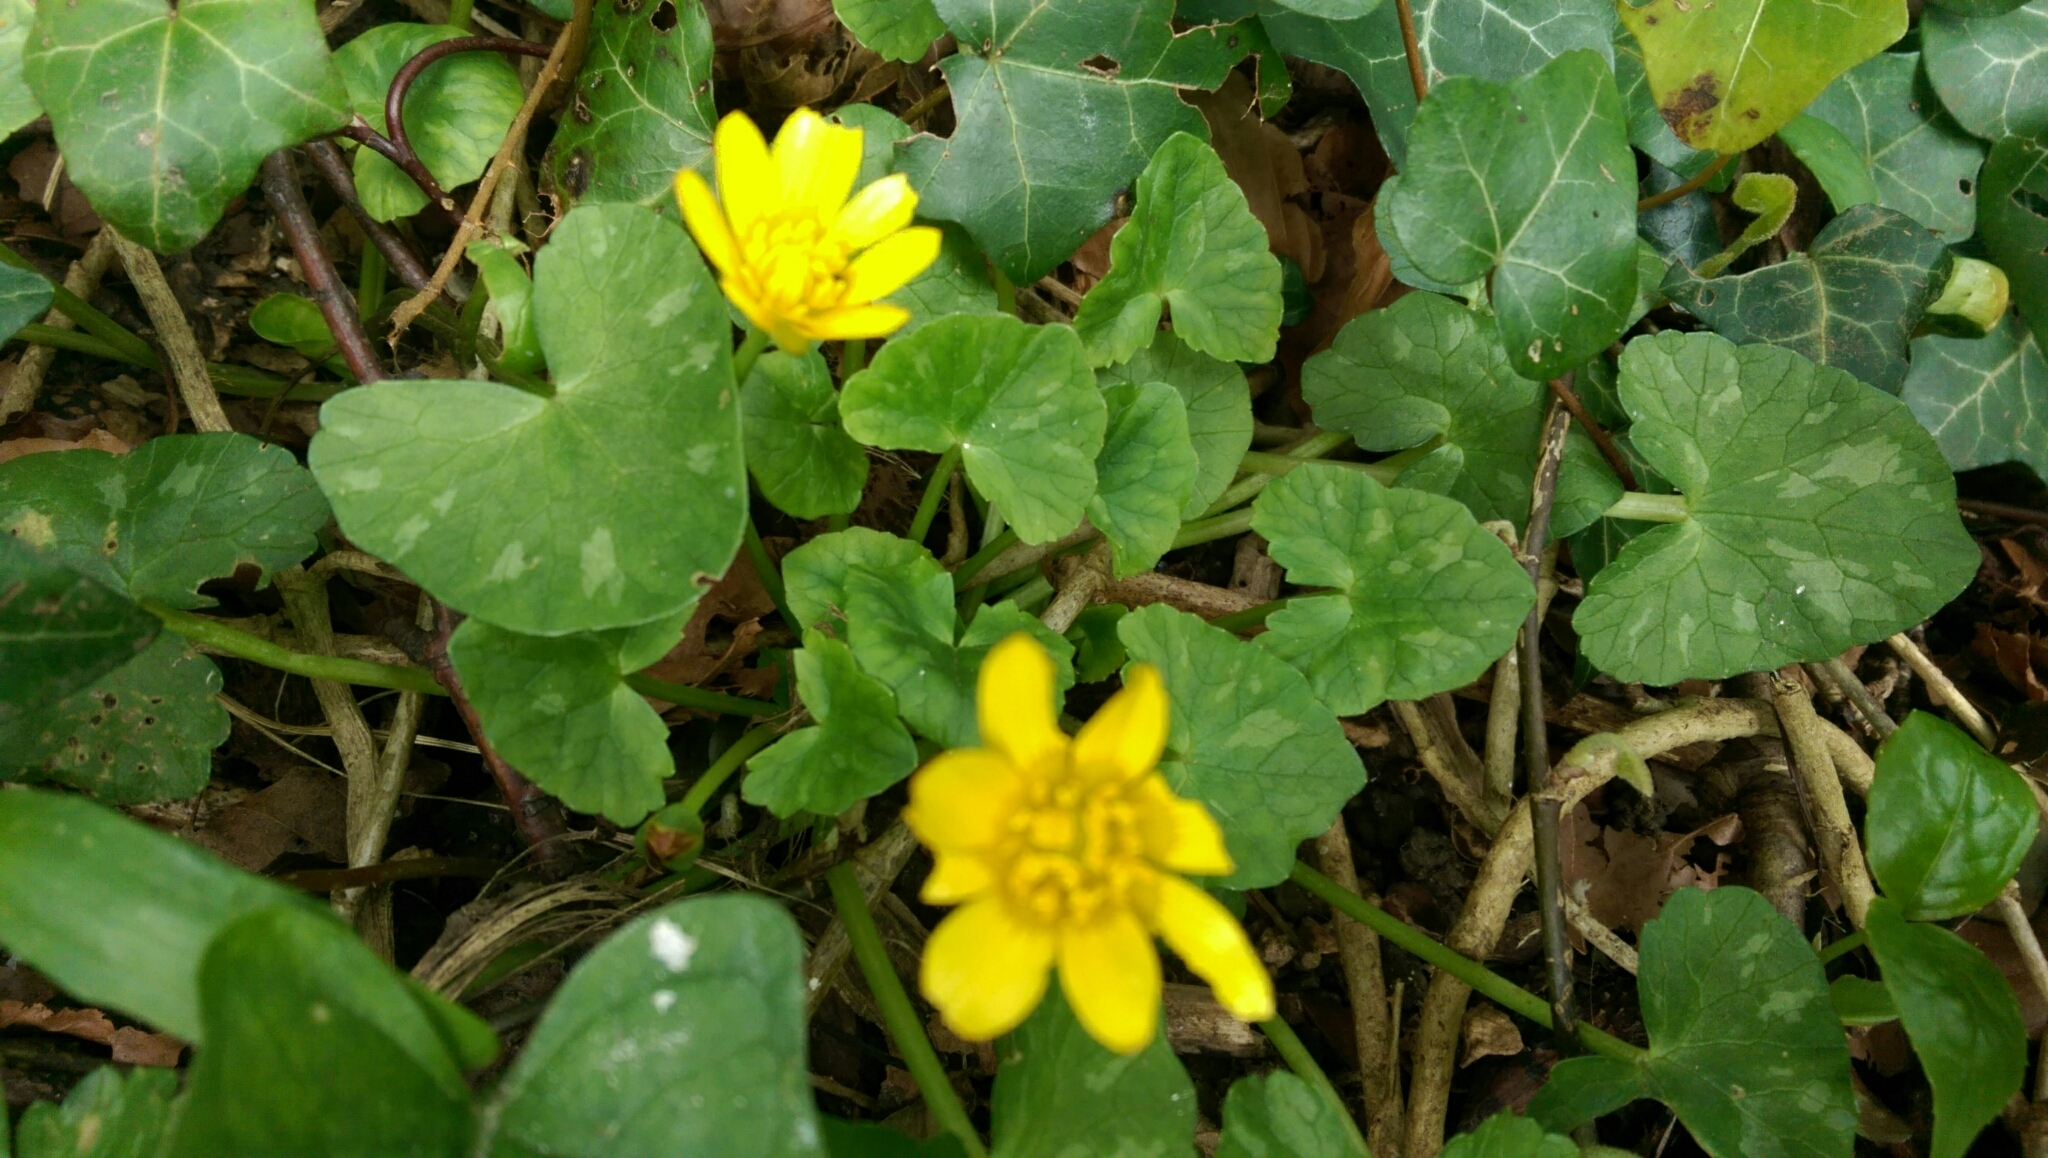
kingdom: Plantae
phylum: Tracheophyta
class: Magnoliopsida
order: Ranunculales
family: Ranunculaceae
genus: Ficaria
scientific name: Ficaria verna
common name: Lesser celandine
